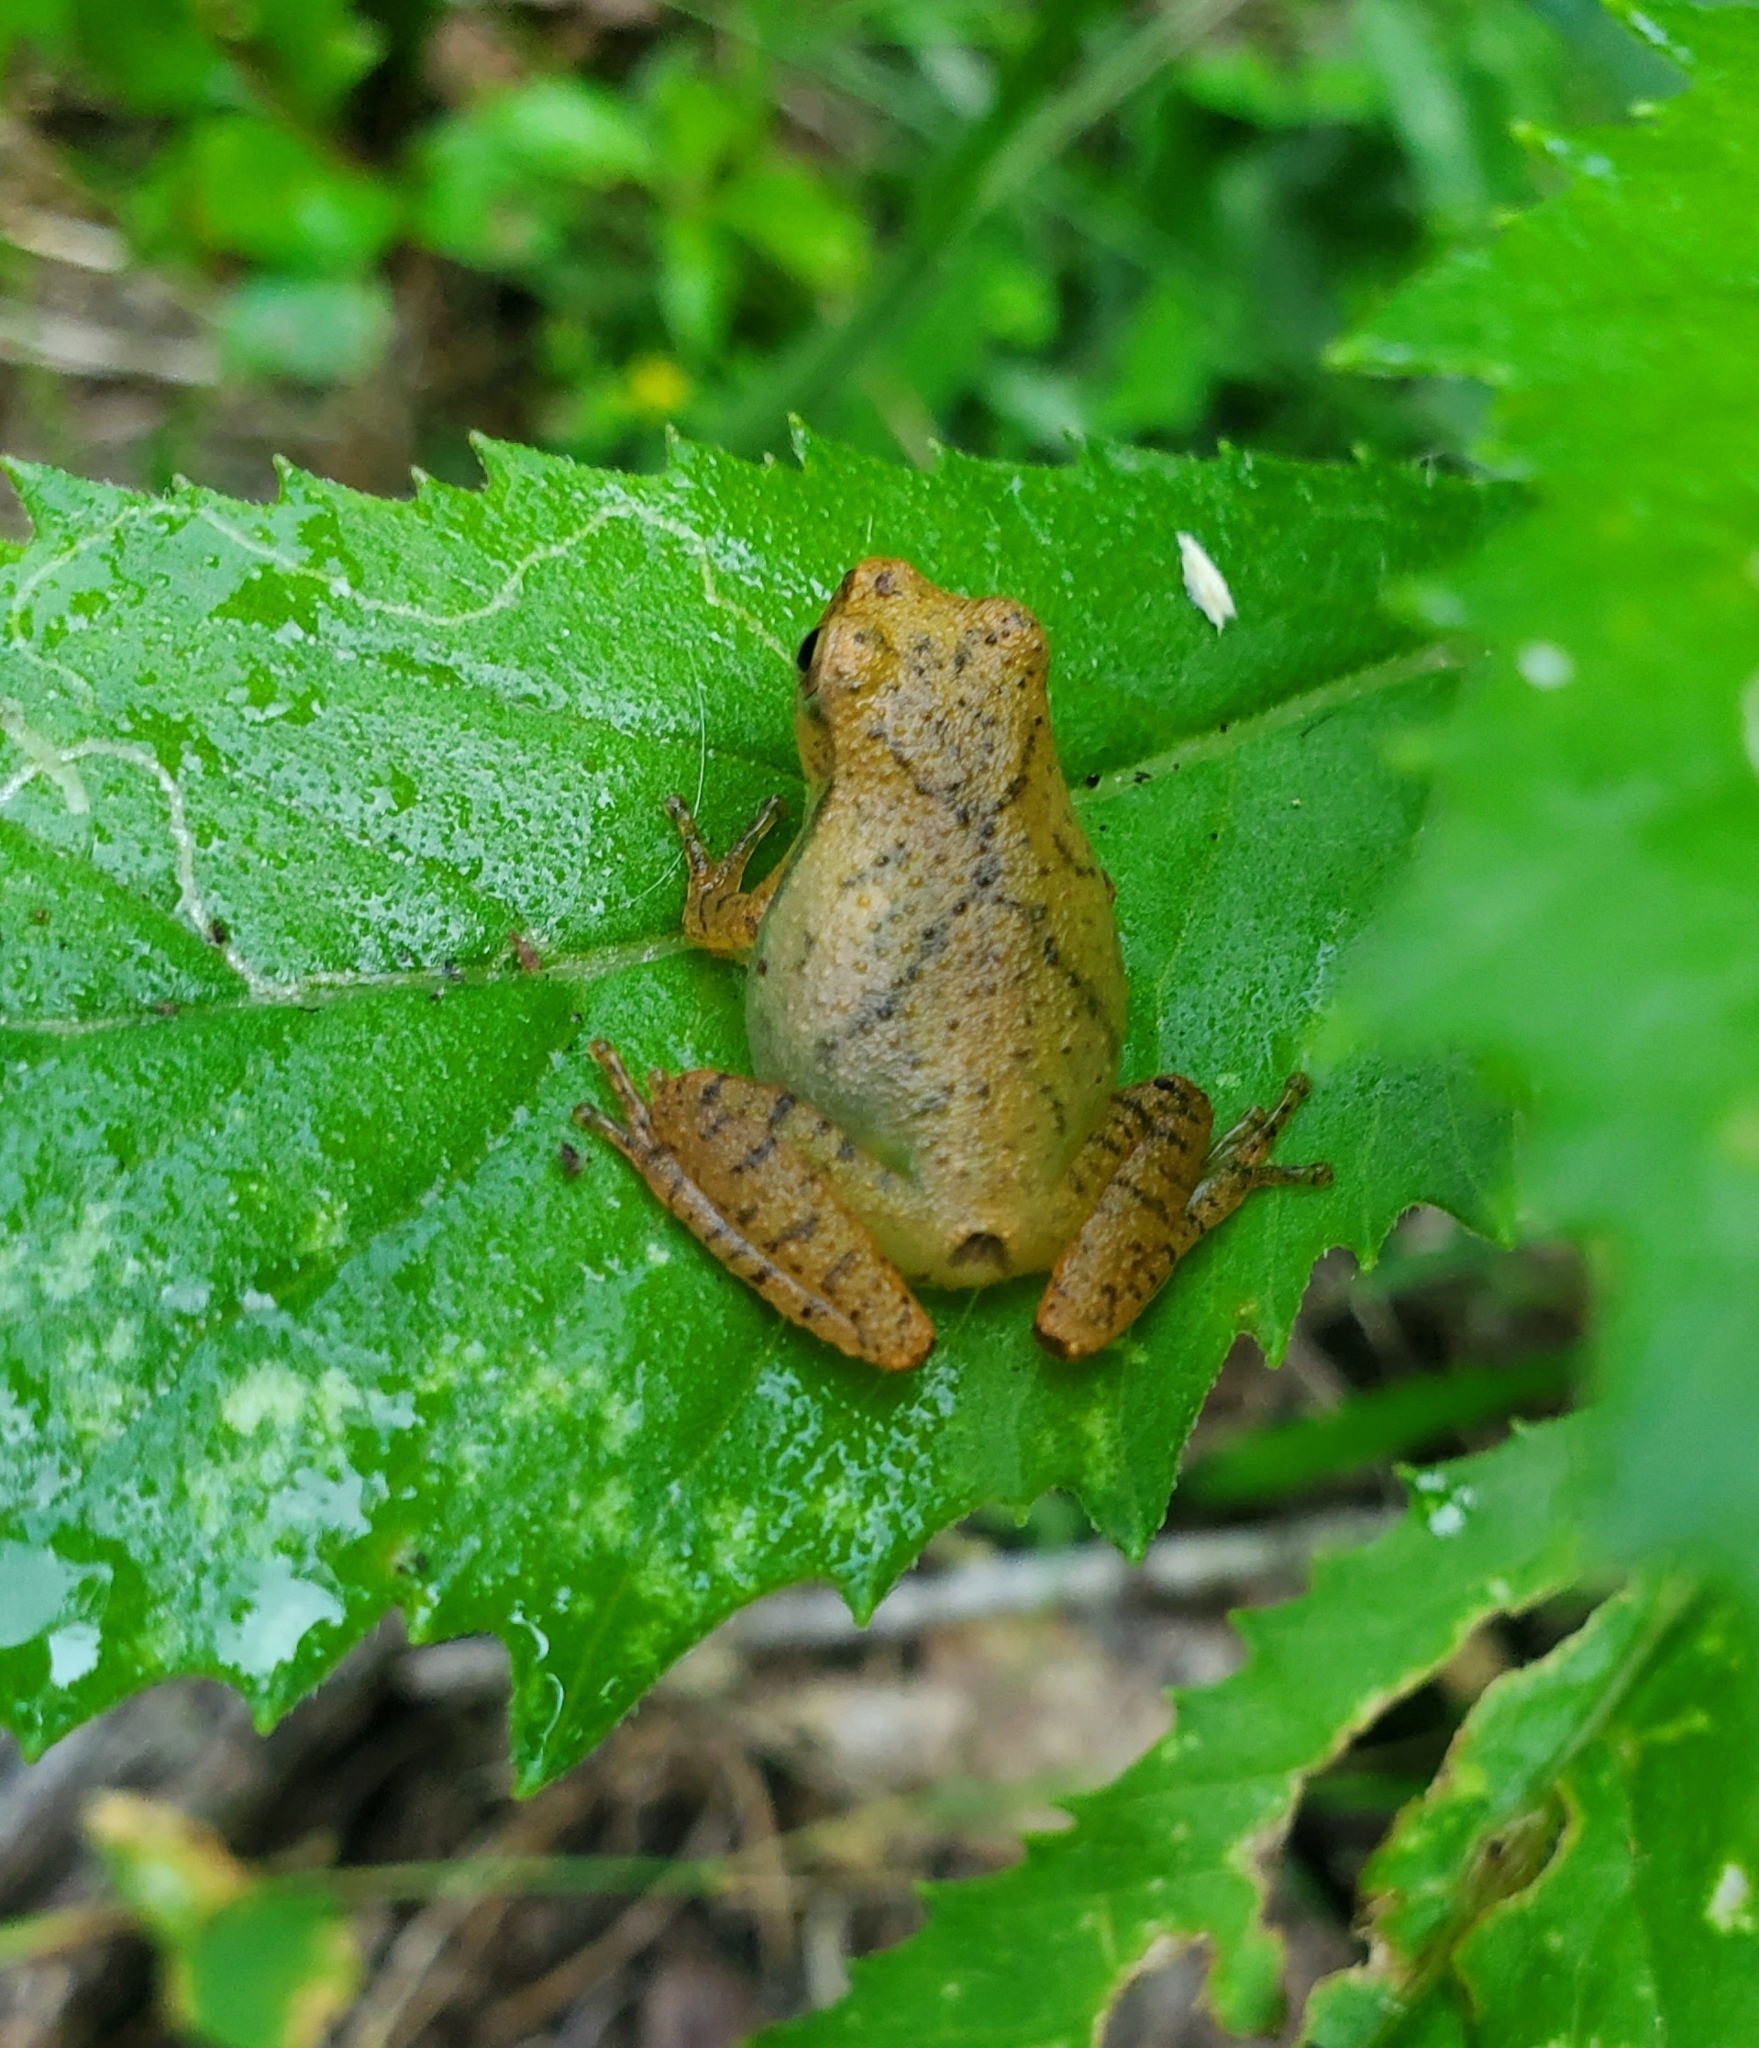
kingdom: Animalia
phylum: Chordata
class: Amphibia
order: Anura
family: Hylidae
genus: Pseudacris
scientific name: Pseudacris crucifer
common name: Spring peeper
